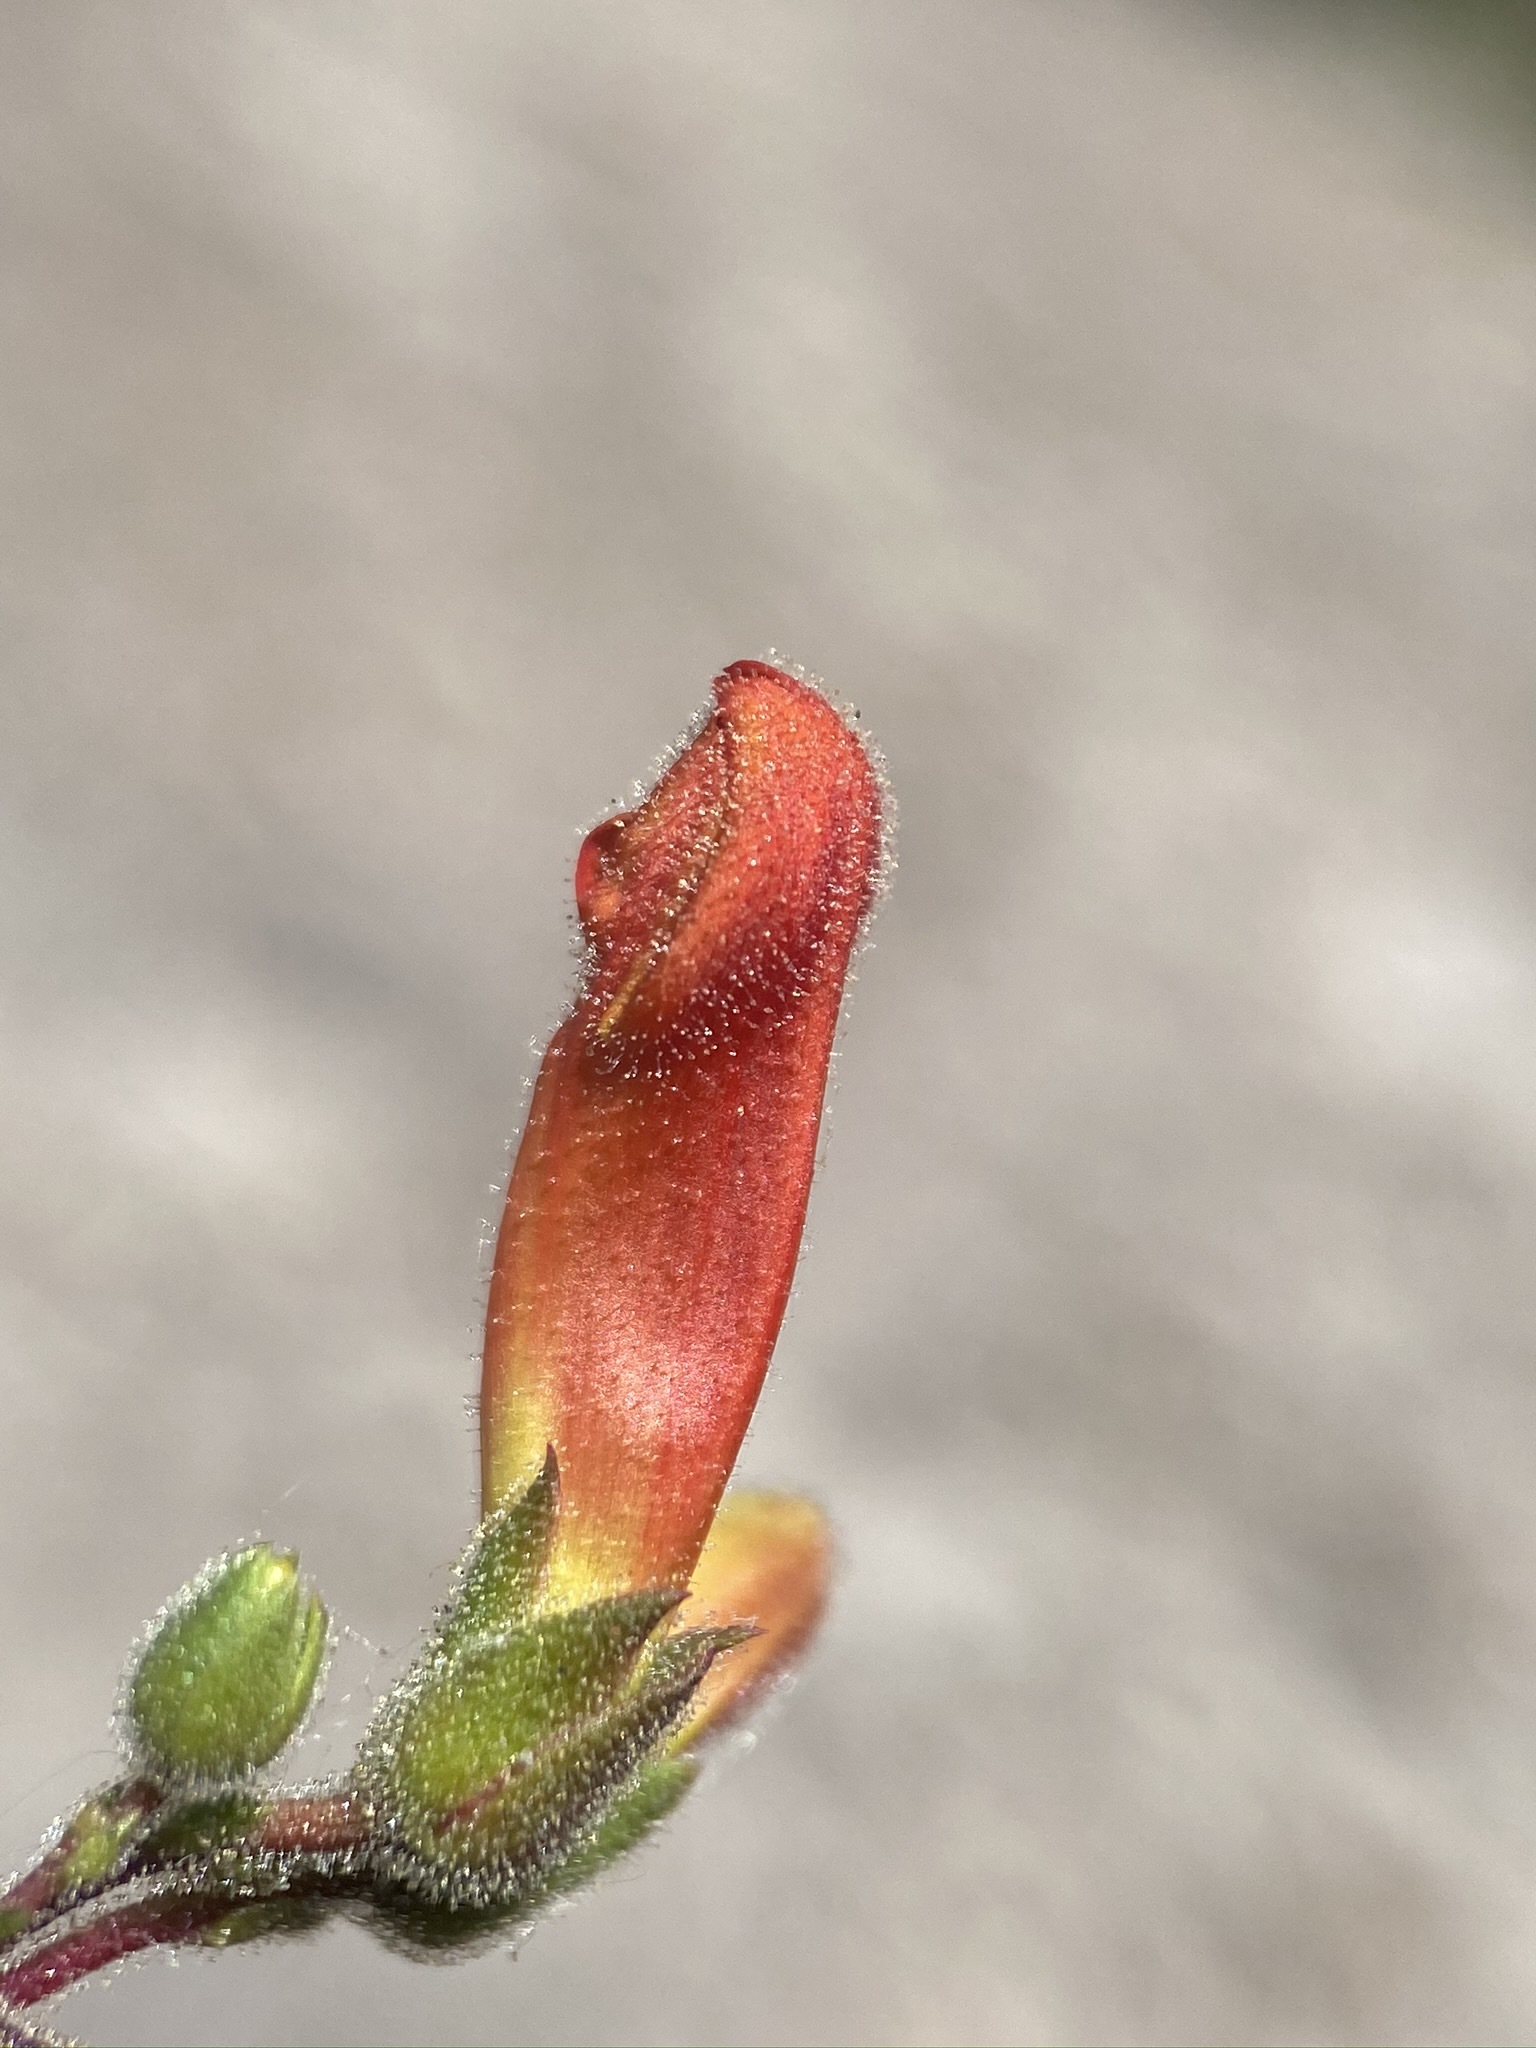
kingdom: Plantae
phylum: Tracheophyta
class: Magnoliopsida
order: Lamiales
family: Plantaginaceae
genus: Penstemon
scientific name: Penstemon rostriflorus
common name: Bridges's penstemon
